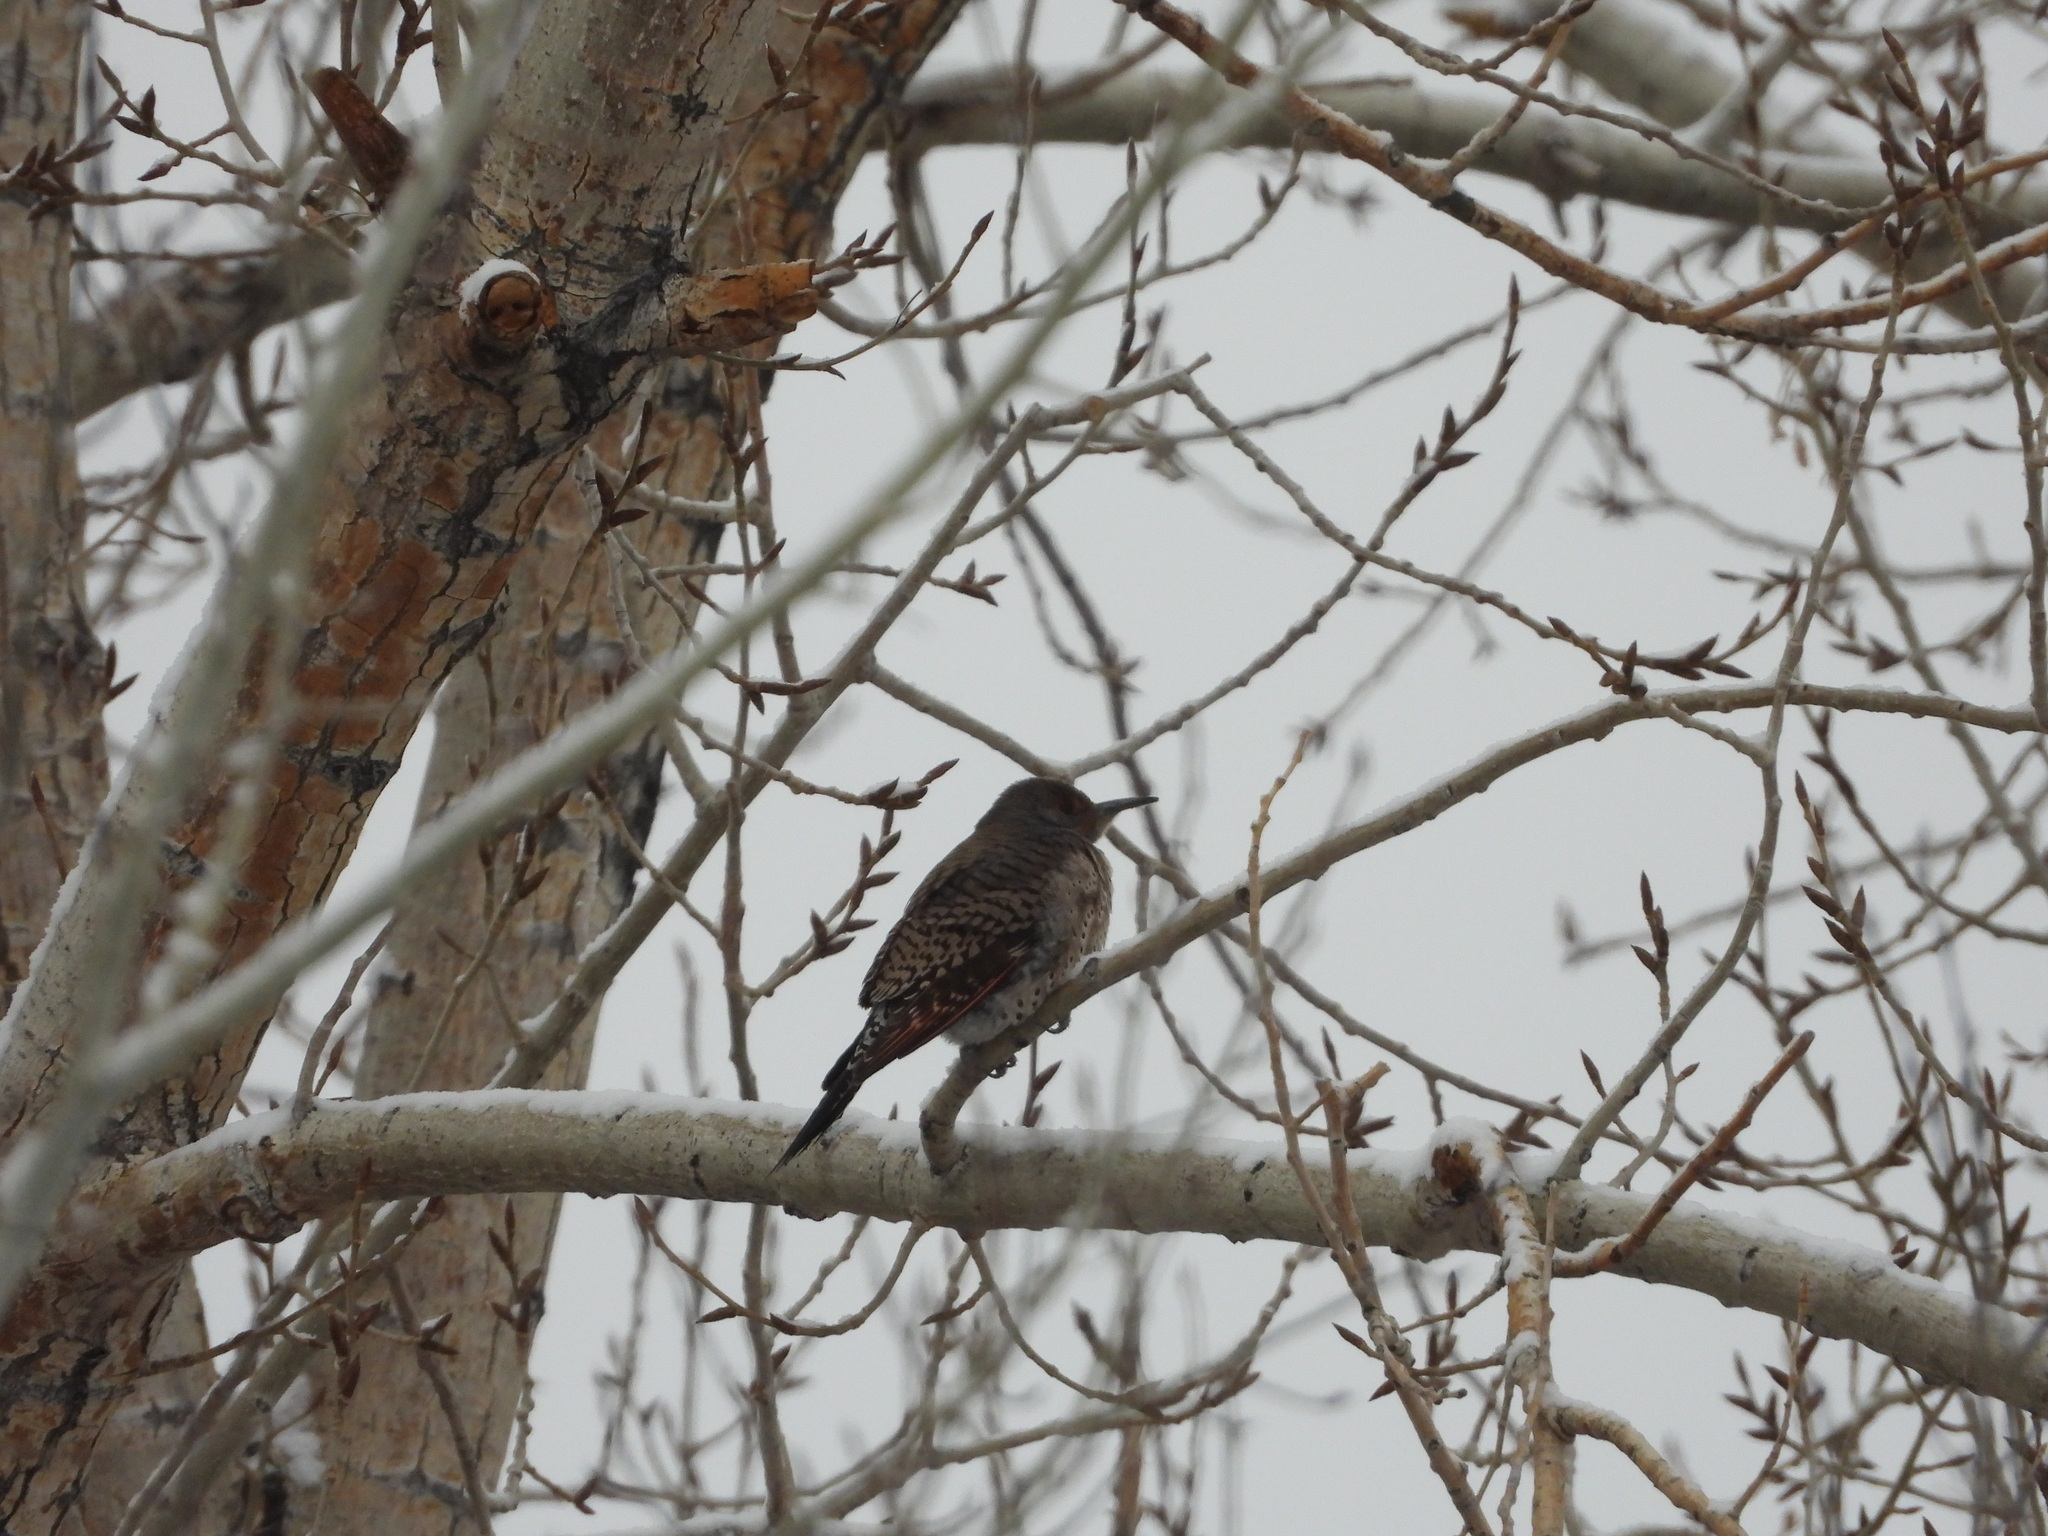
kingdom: Animalia
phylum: Chordata
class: Aves
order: Piciformes
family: Picidae
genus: Colaptes
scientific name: Colaptes auratus
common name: Northern flicker
